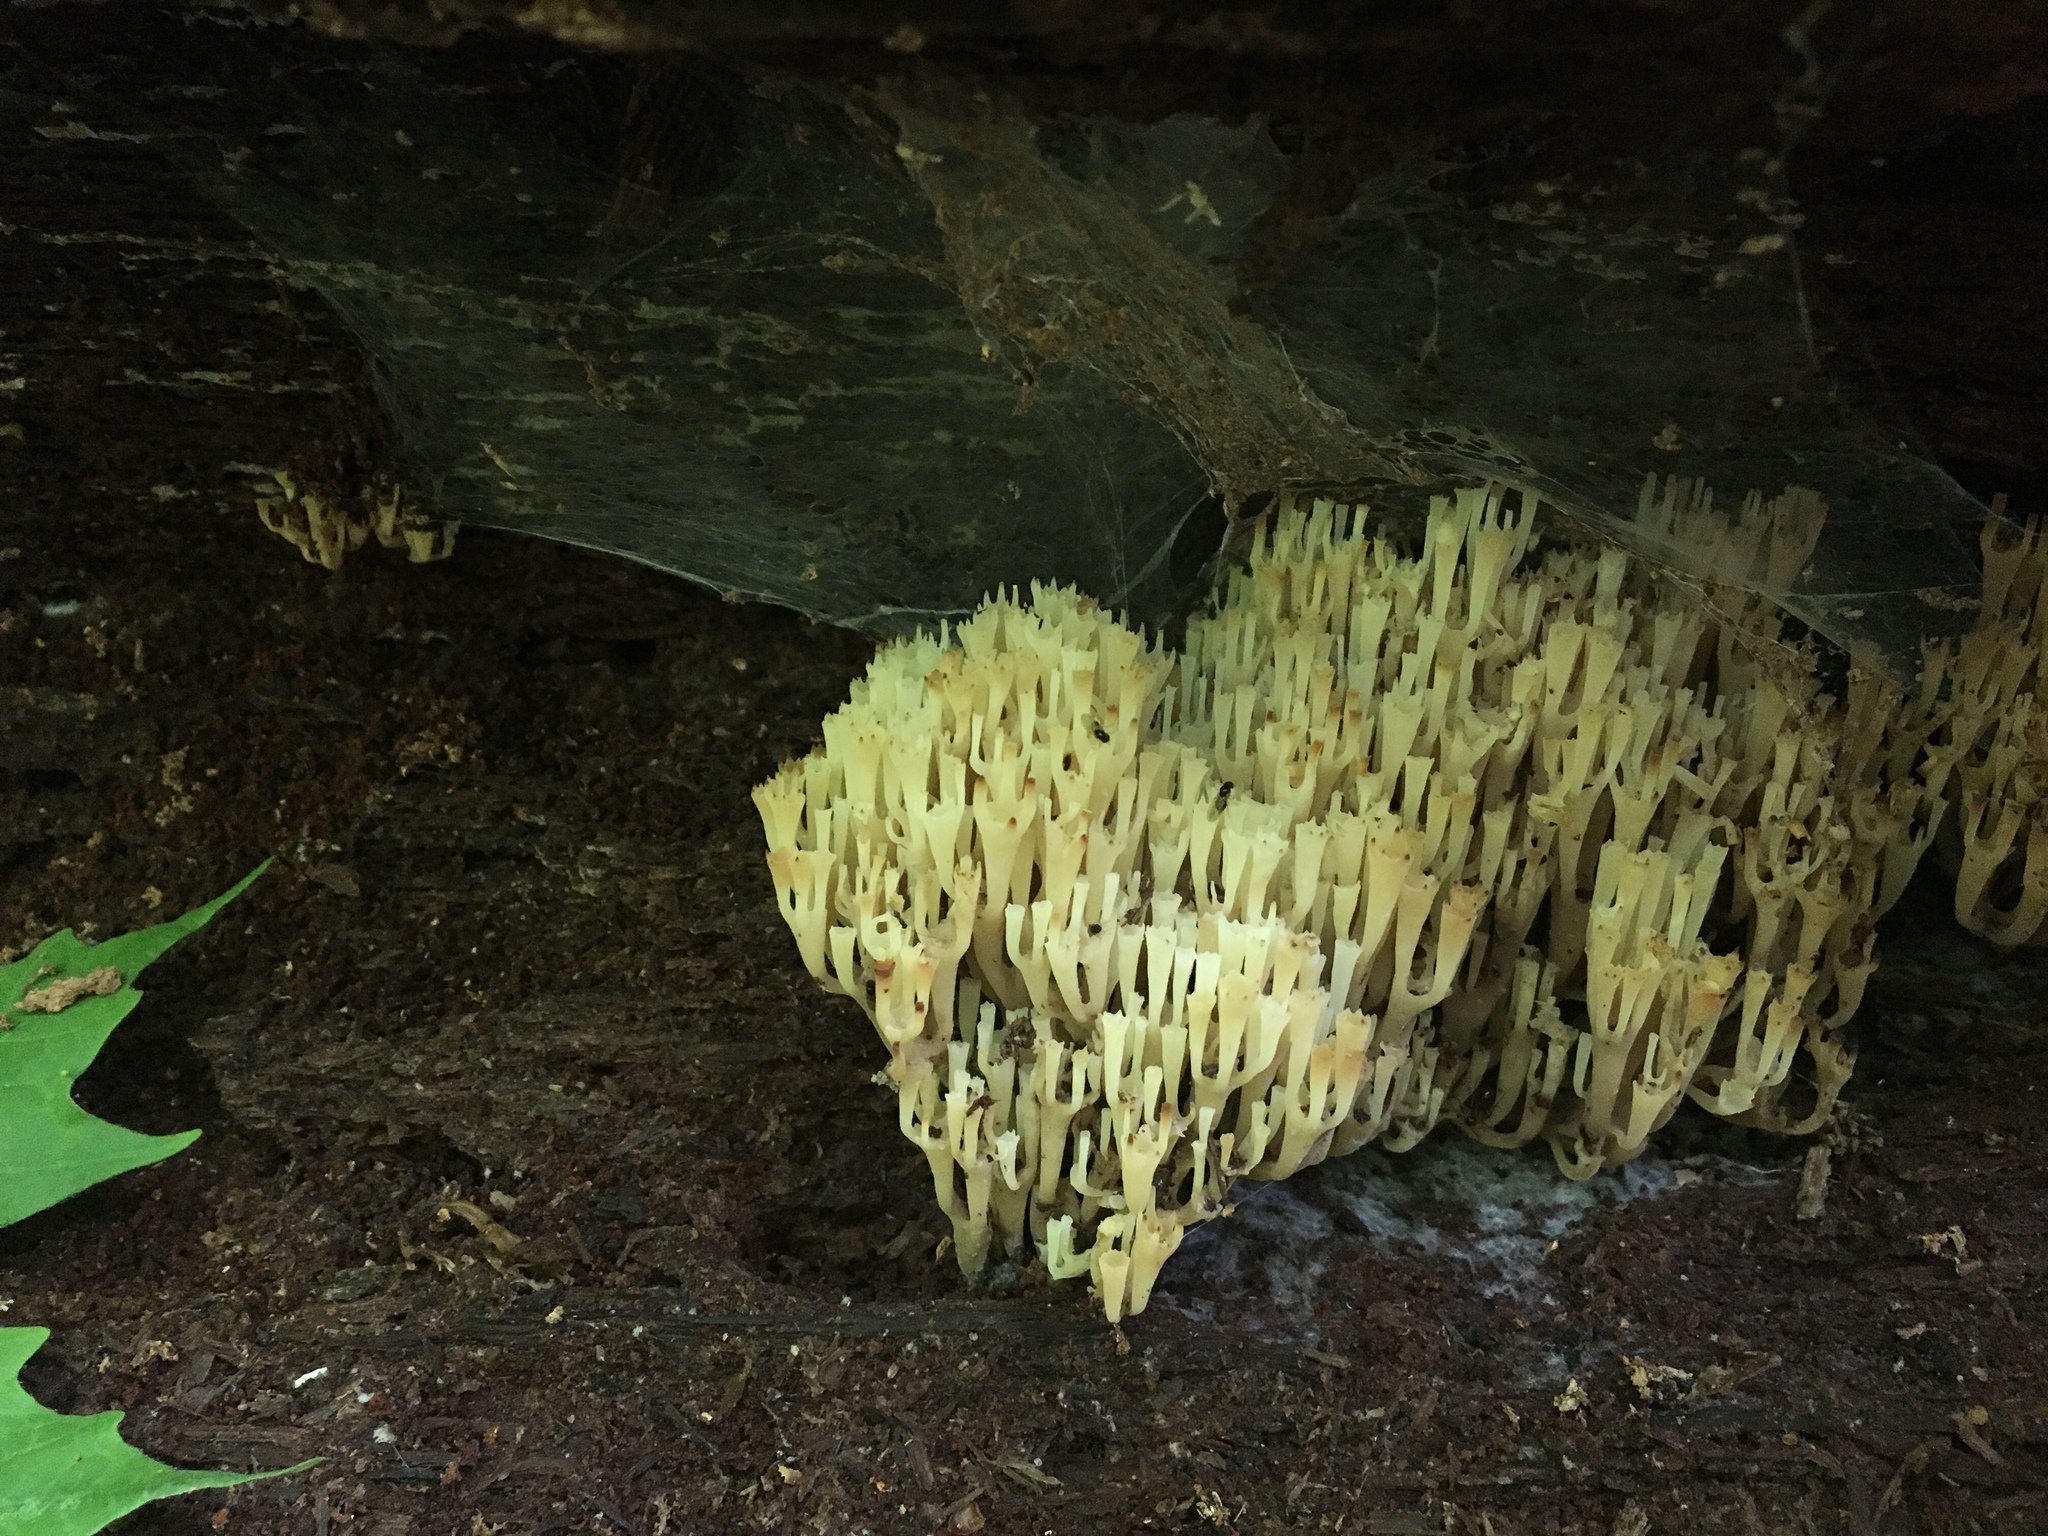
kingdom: Fungi
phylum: Basidiomycota
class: Agaricomycetes
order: Russulales
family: Auriscalpiaceae
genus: Artomyces
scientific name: Artomyces pyxidatus
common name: Crown-tipped coral fungus
